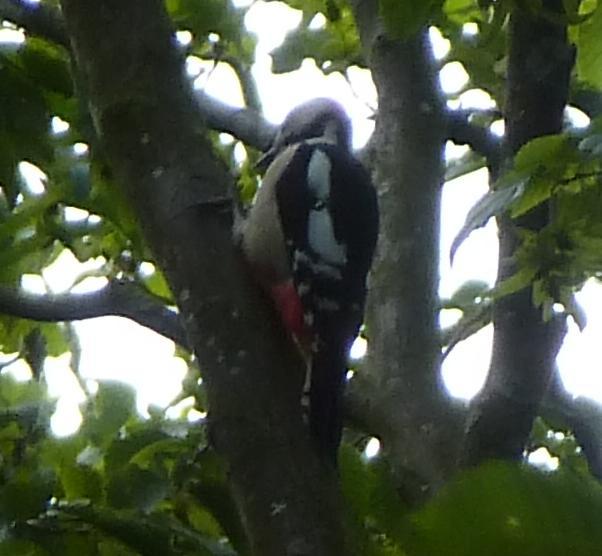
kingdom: Animalia
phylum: Chordata
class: Aves
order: Piciformes
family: Picidae
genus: Dendrocopos
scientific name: Dendrocopos major
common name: Great spotted woodpecker
